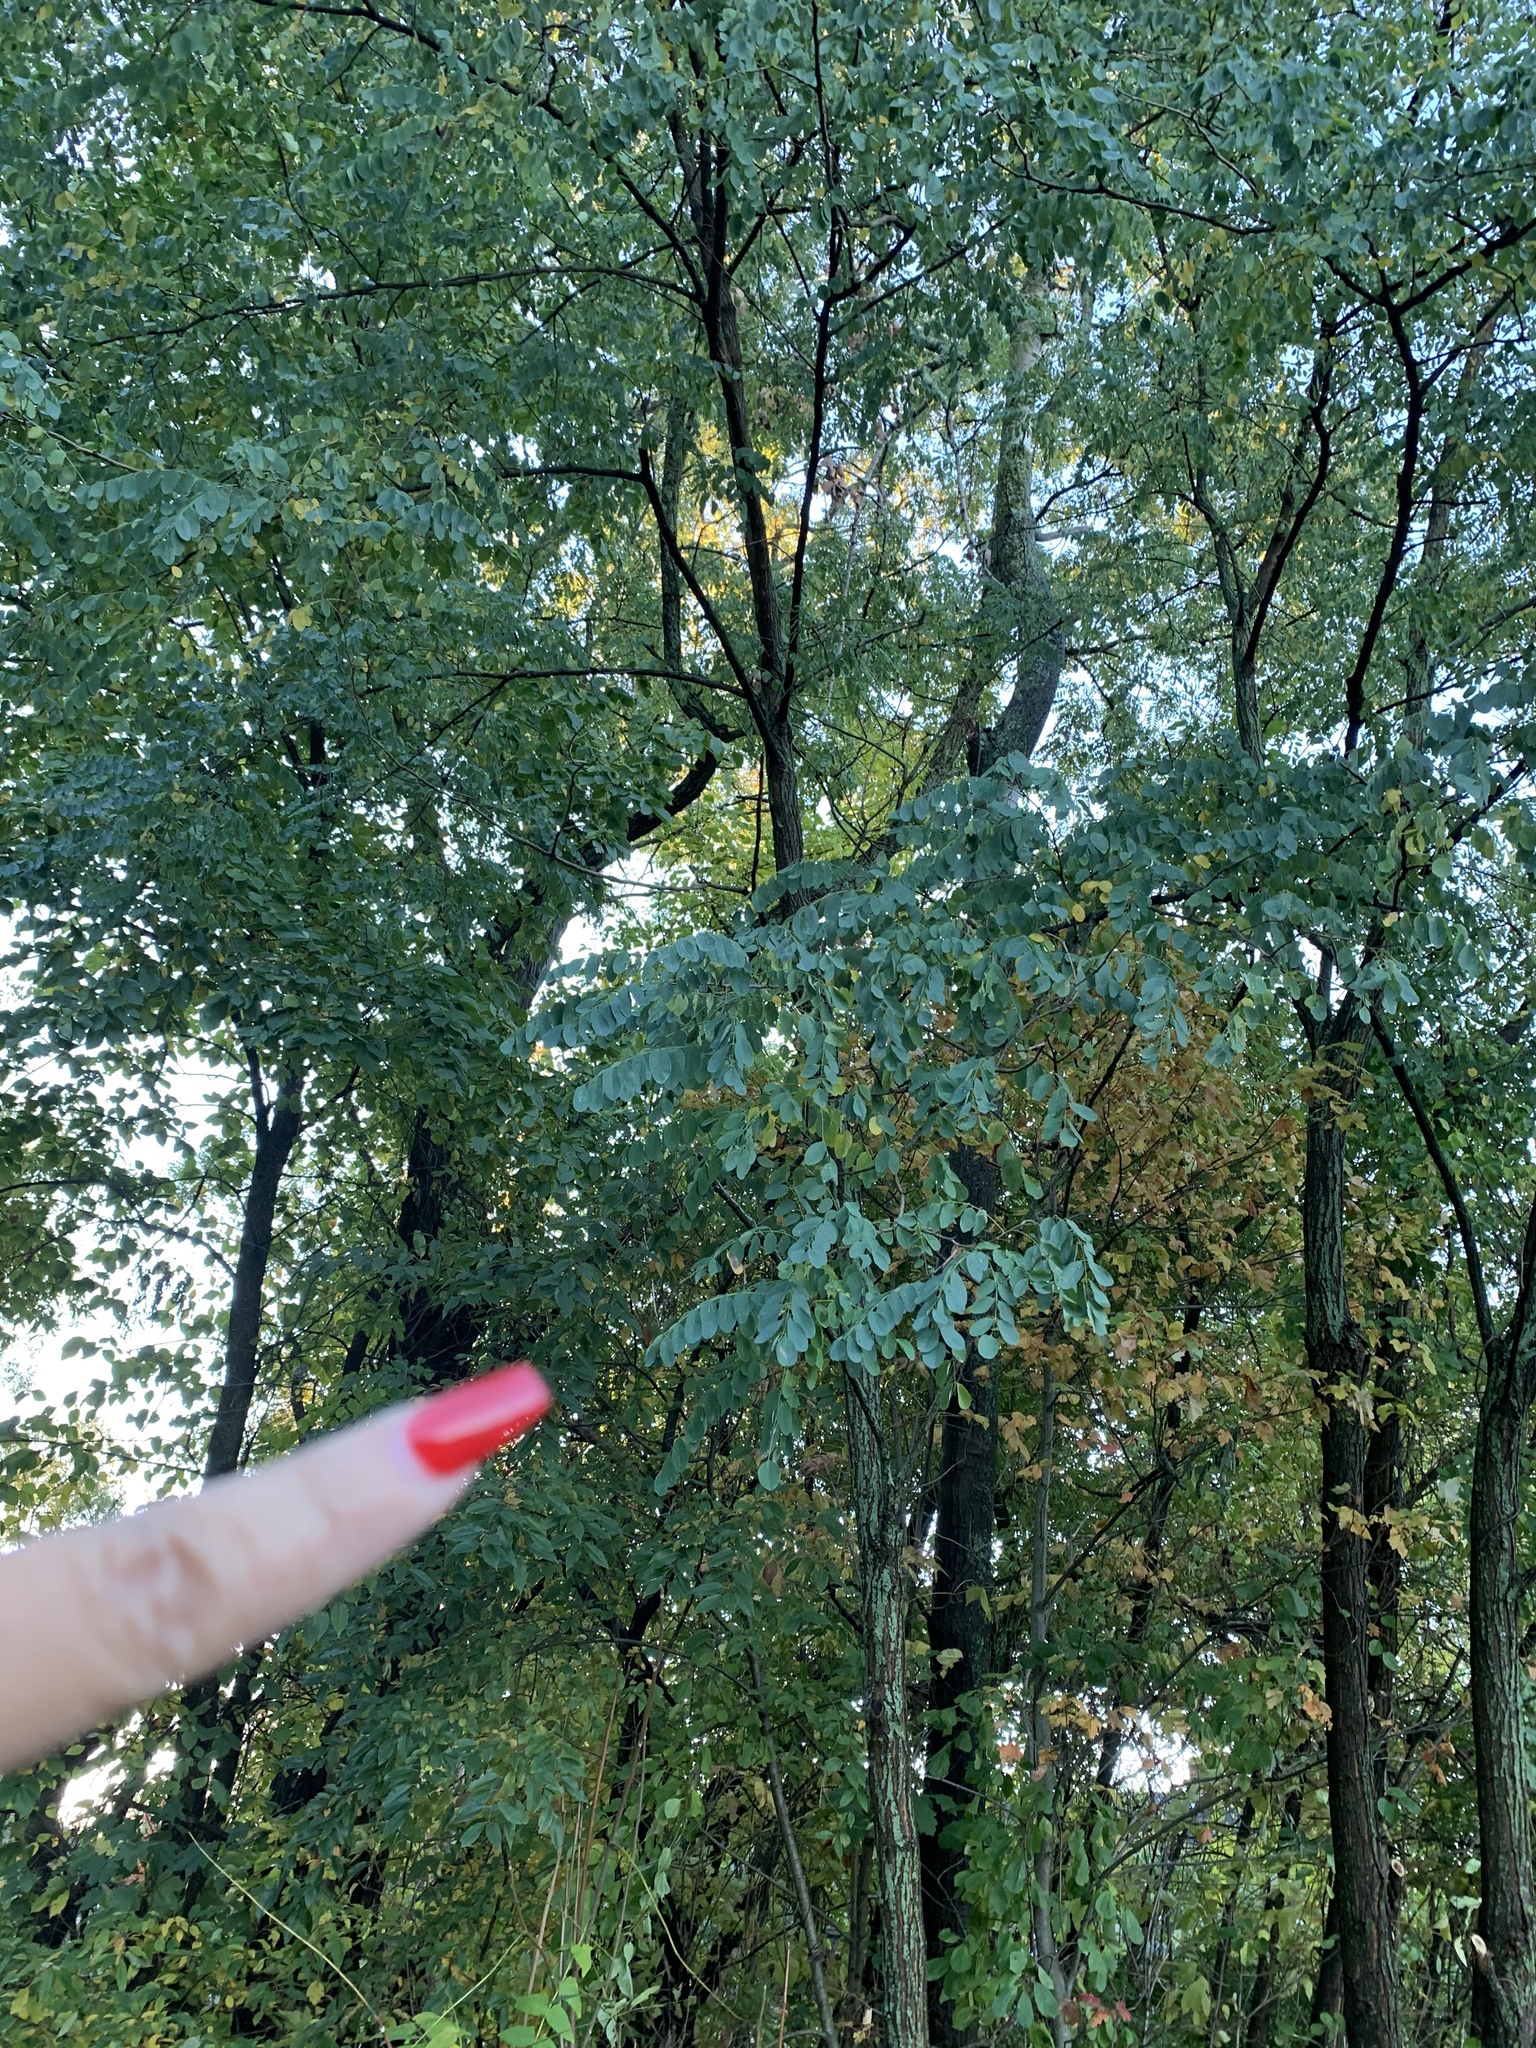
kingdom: Plantae
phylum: Tracheophyta
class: Magnoliopsida
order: Fabales
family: Fabaceae
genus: Robinia
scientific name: Robinia pseudoacacia
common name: Black locust
